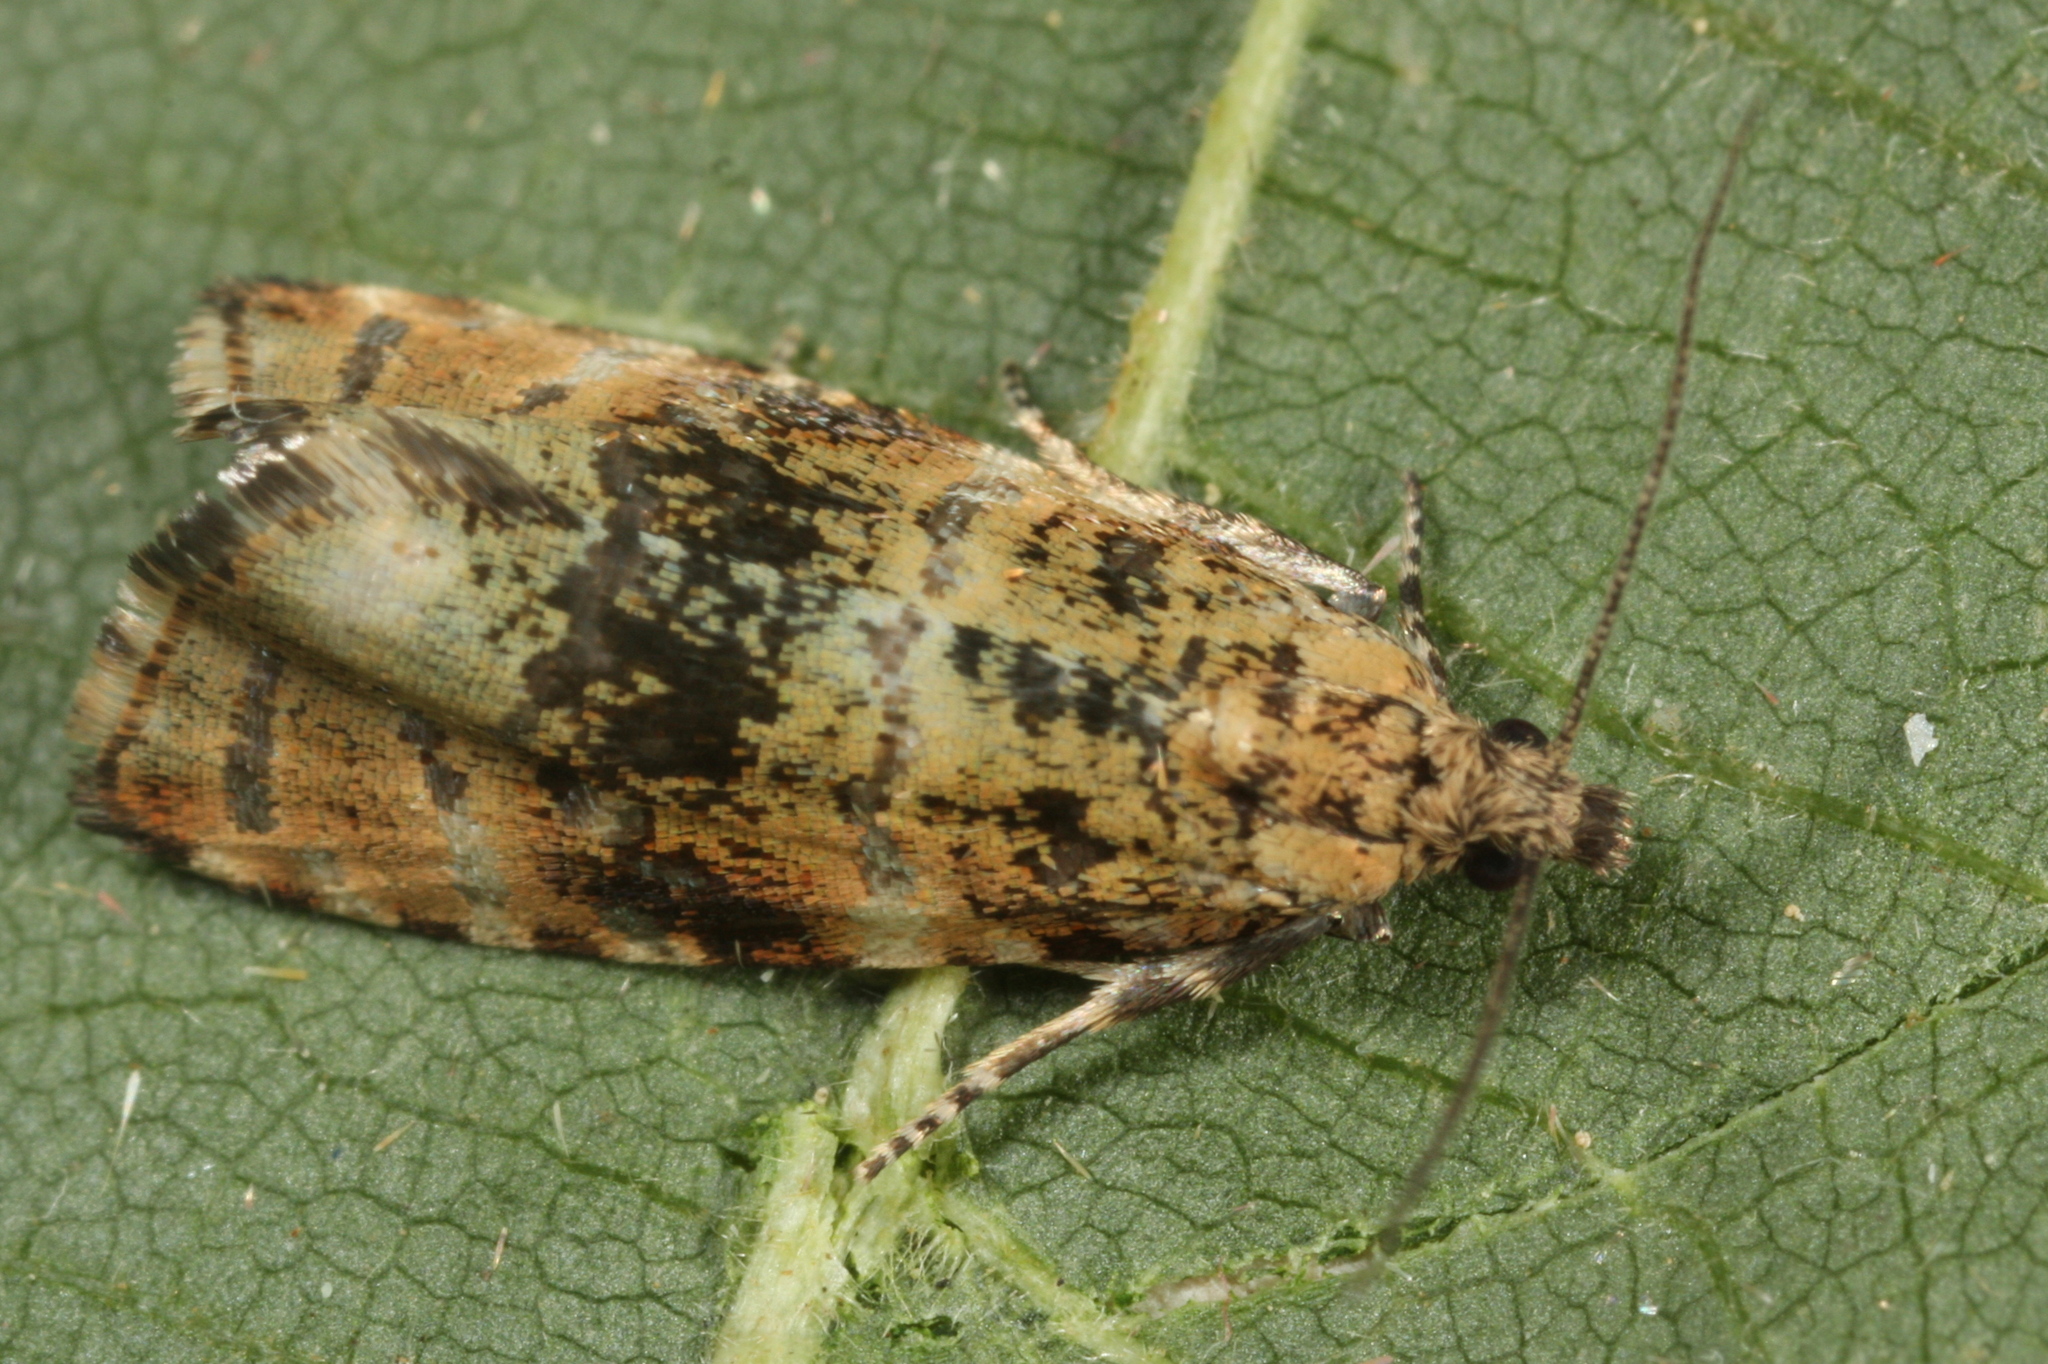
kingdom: Animalia
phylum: Arthropoda
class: Insecta
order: Lepidoptera
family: Tortricidae
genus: Olethreutes
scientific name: Olethreutes micana
